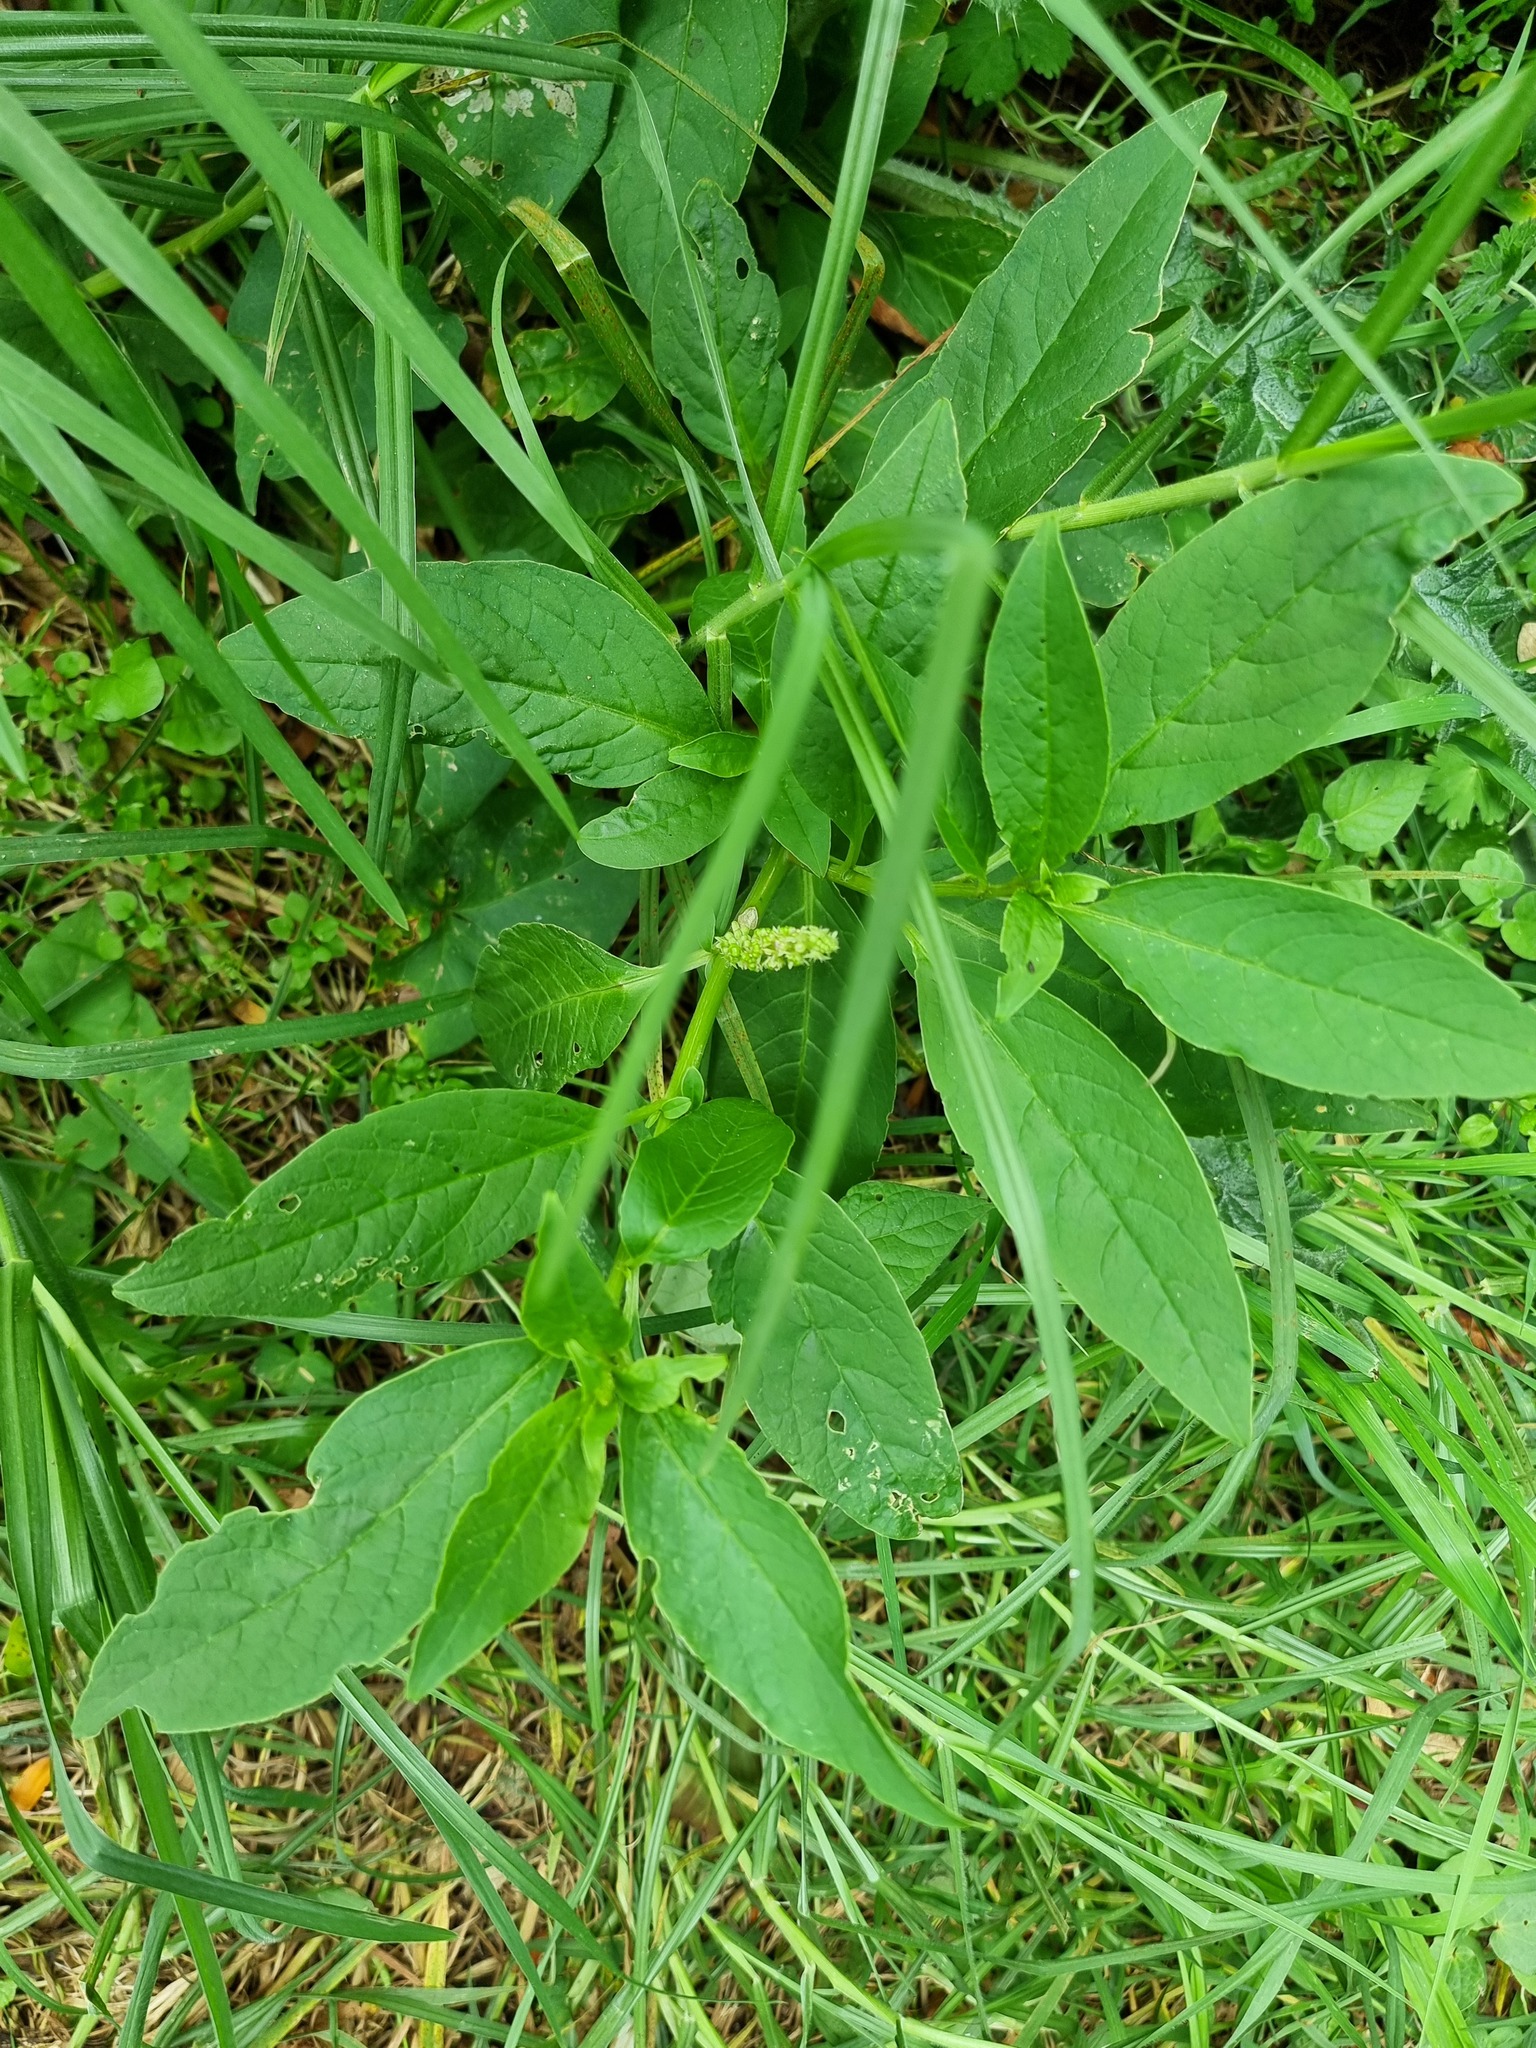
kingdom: Plantae
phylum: Tracheophyta
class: Magnoliopsida
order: Caryophyllales
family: Phytolaccaceae
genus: Phytolacca
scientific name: Phytolacca icosandra
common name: Button pokeweed
